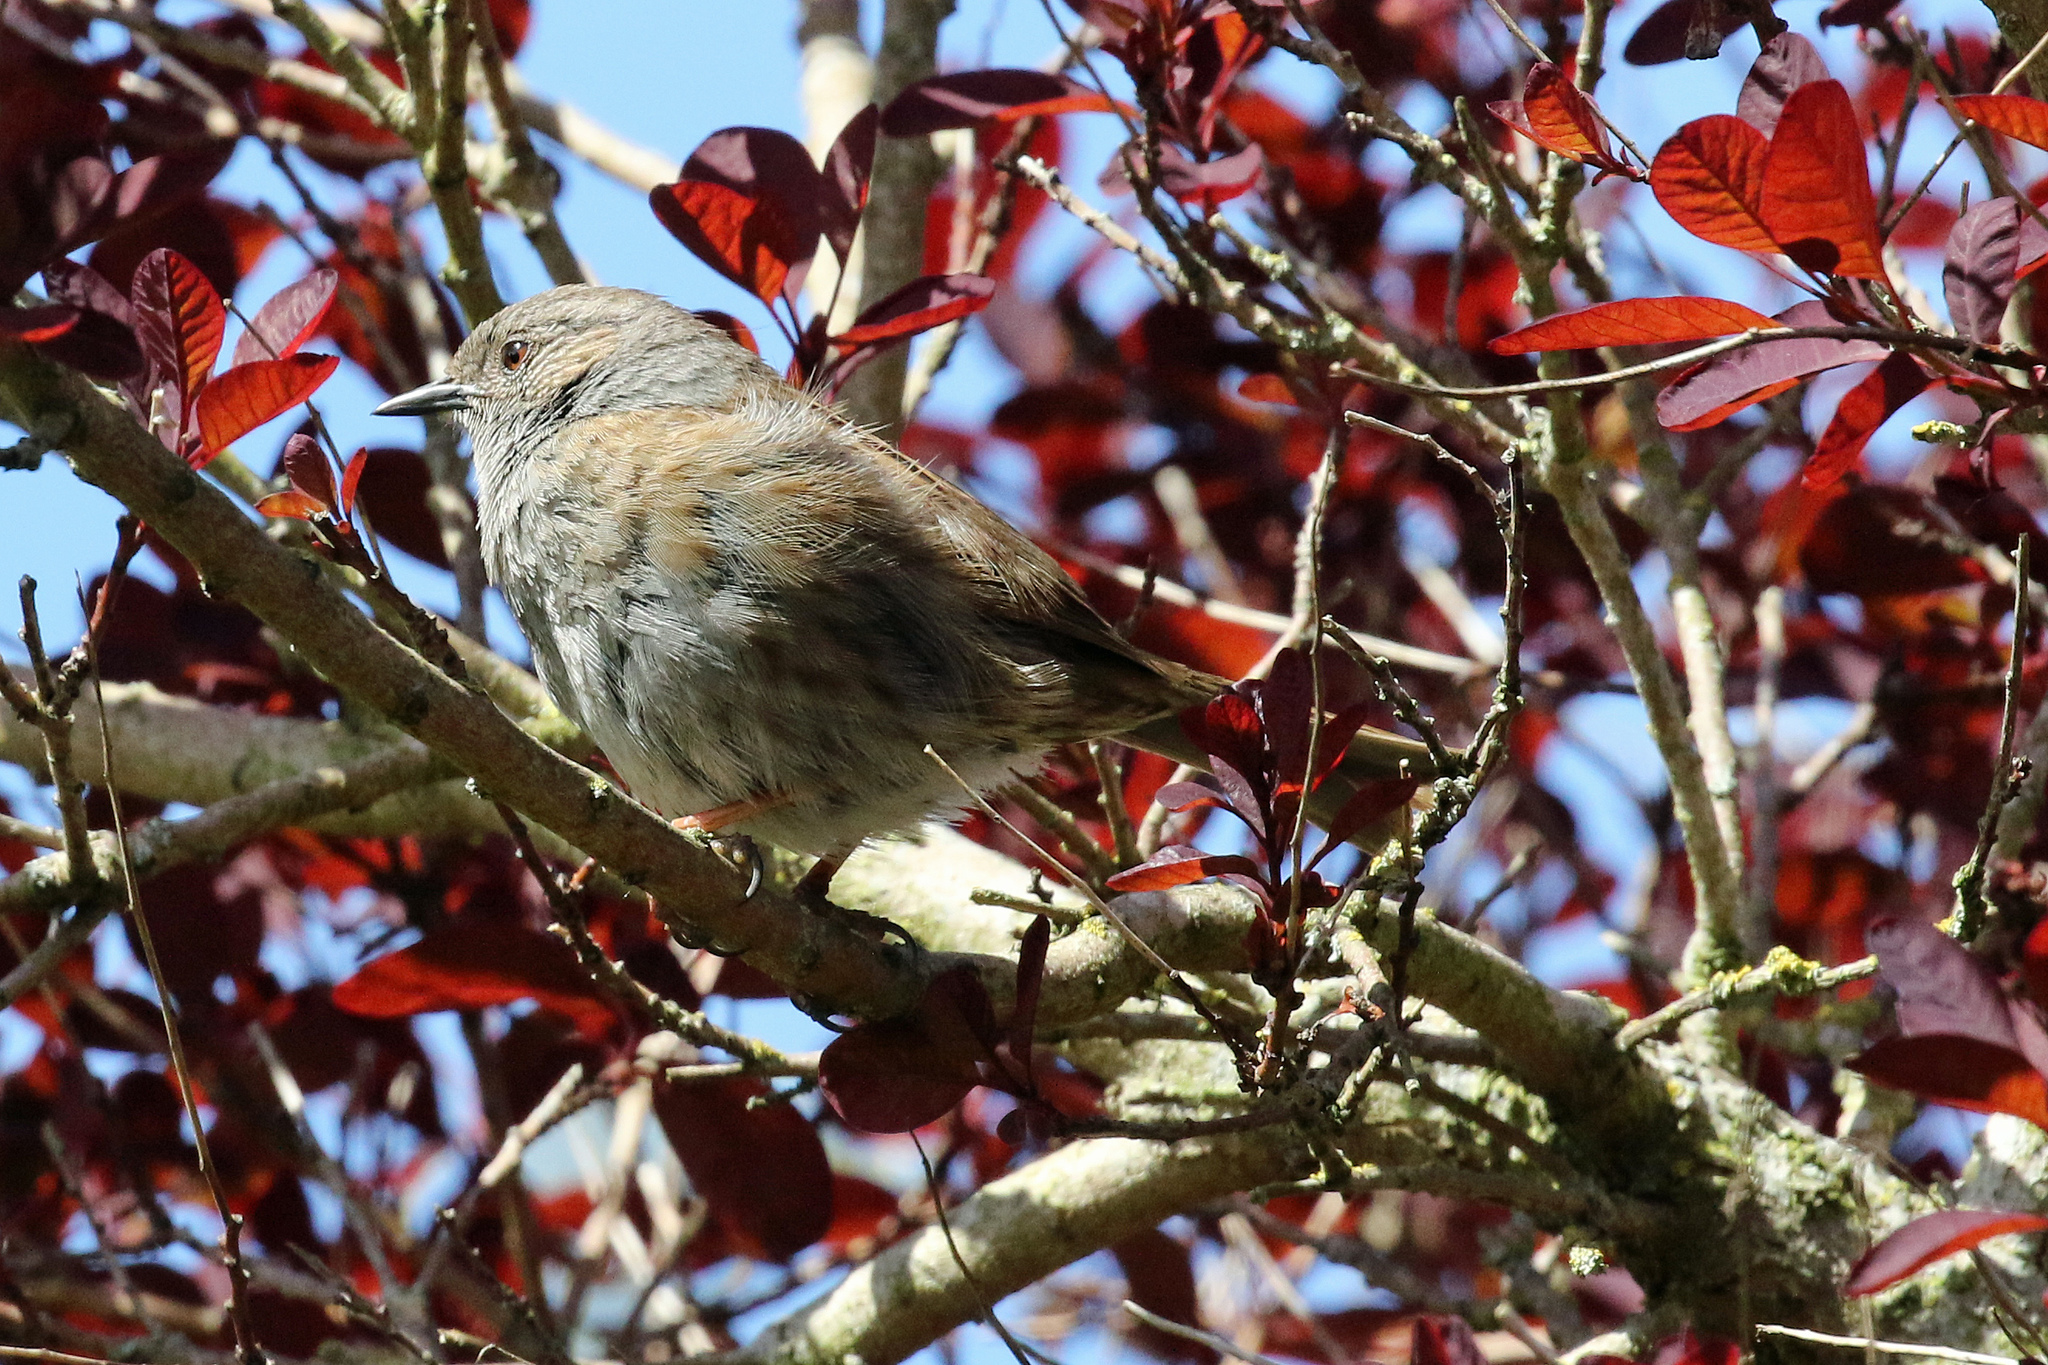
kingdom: Animalia
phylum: Chordata
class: Aves
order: Passeriformes
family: Prunellidae
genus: Prunella
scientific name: Prunella modularis
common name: Dunnock
